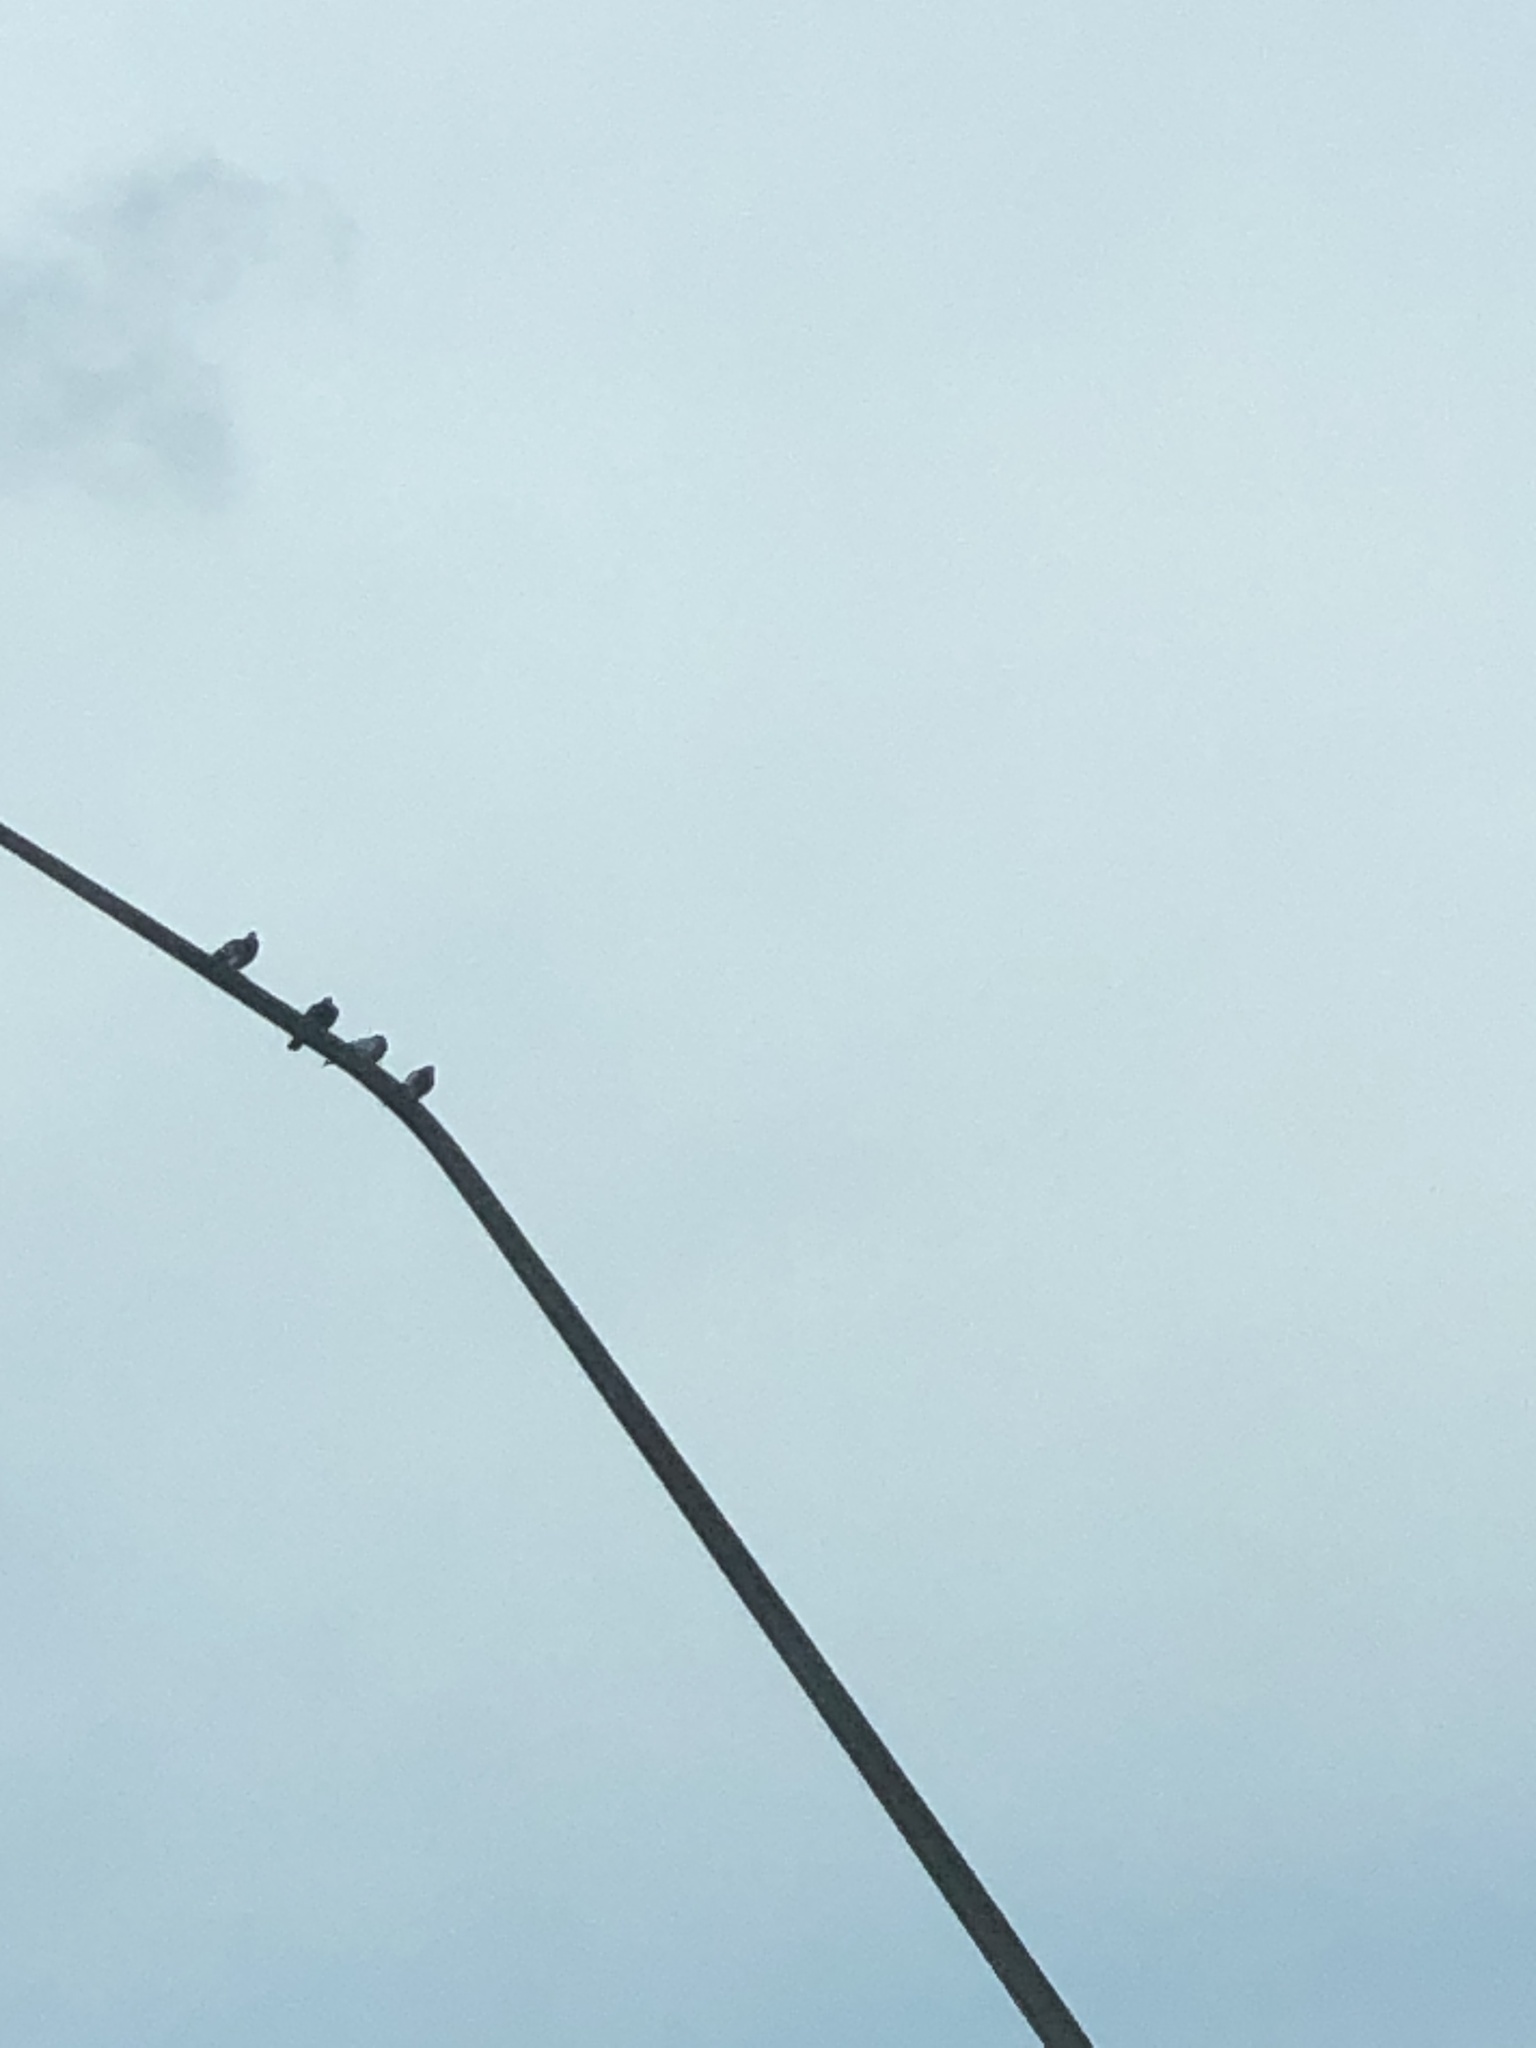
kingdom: Animalia
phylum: Chordata
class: Aves
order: Columbiformes
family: Columbidae
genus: Columba
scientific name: Columba livia
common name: Rock pigeon
